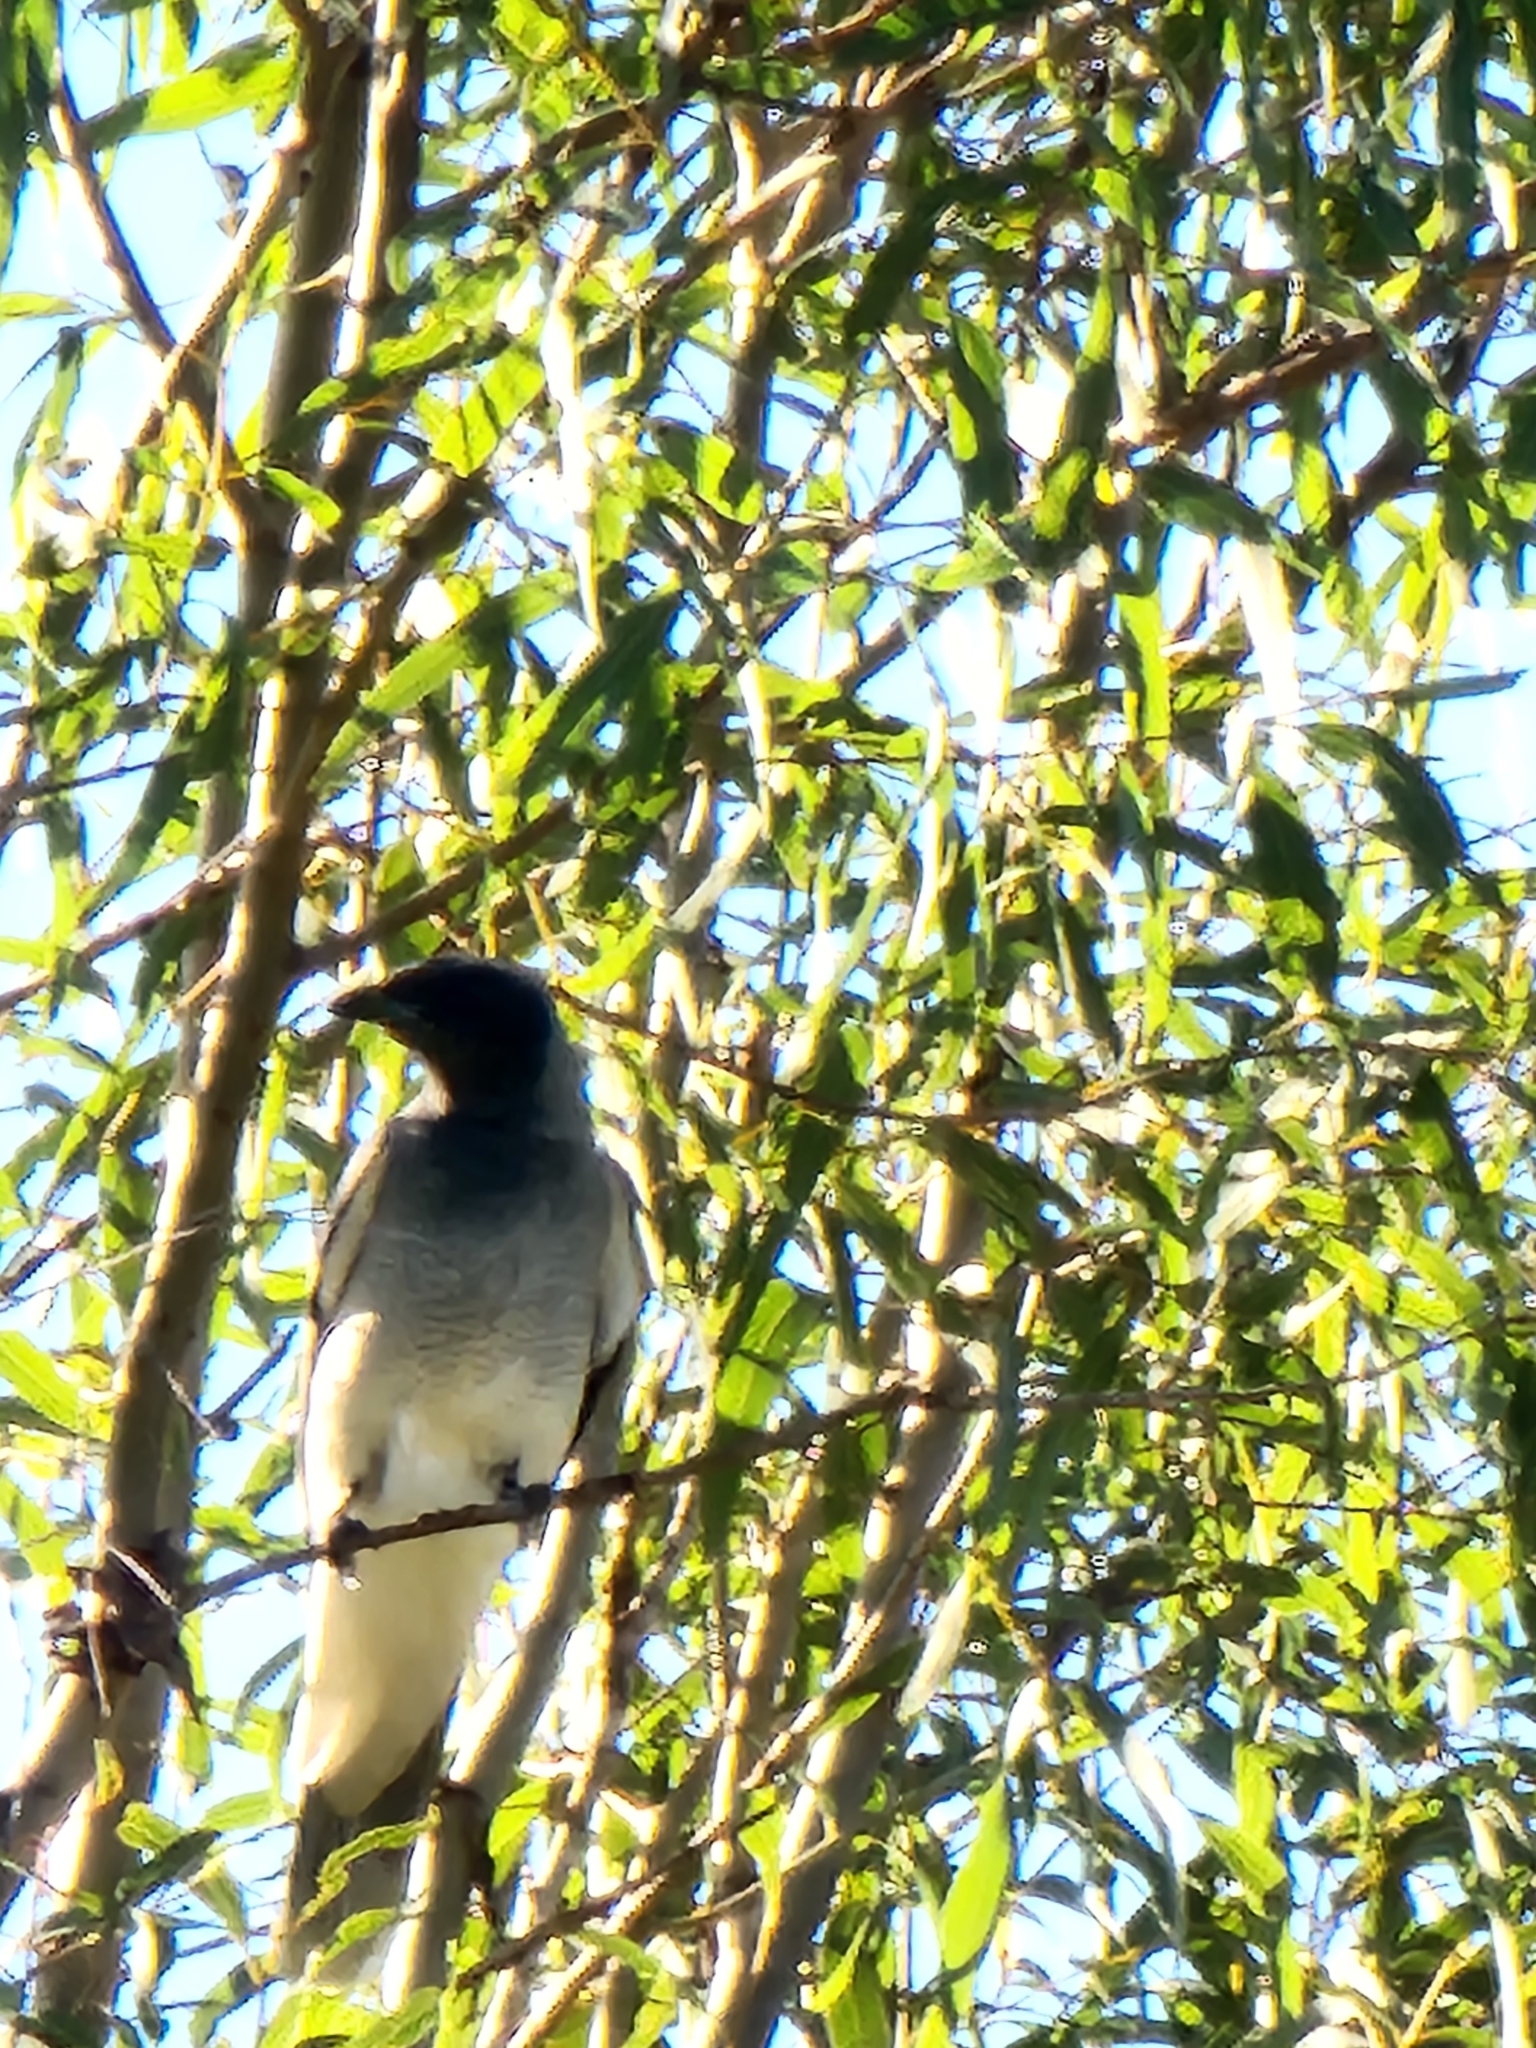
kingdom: Animalia
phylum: Chordata
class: Aves
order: Passeriformes
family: Campephagidae
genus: Coracina
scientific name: Coracina novaehollandiae
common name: Black-faced cuckooshrike
